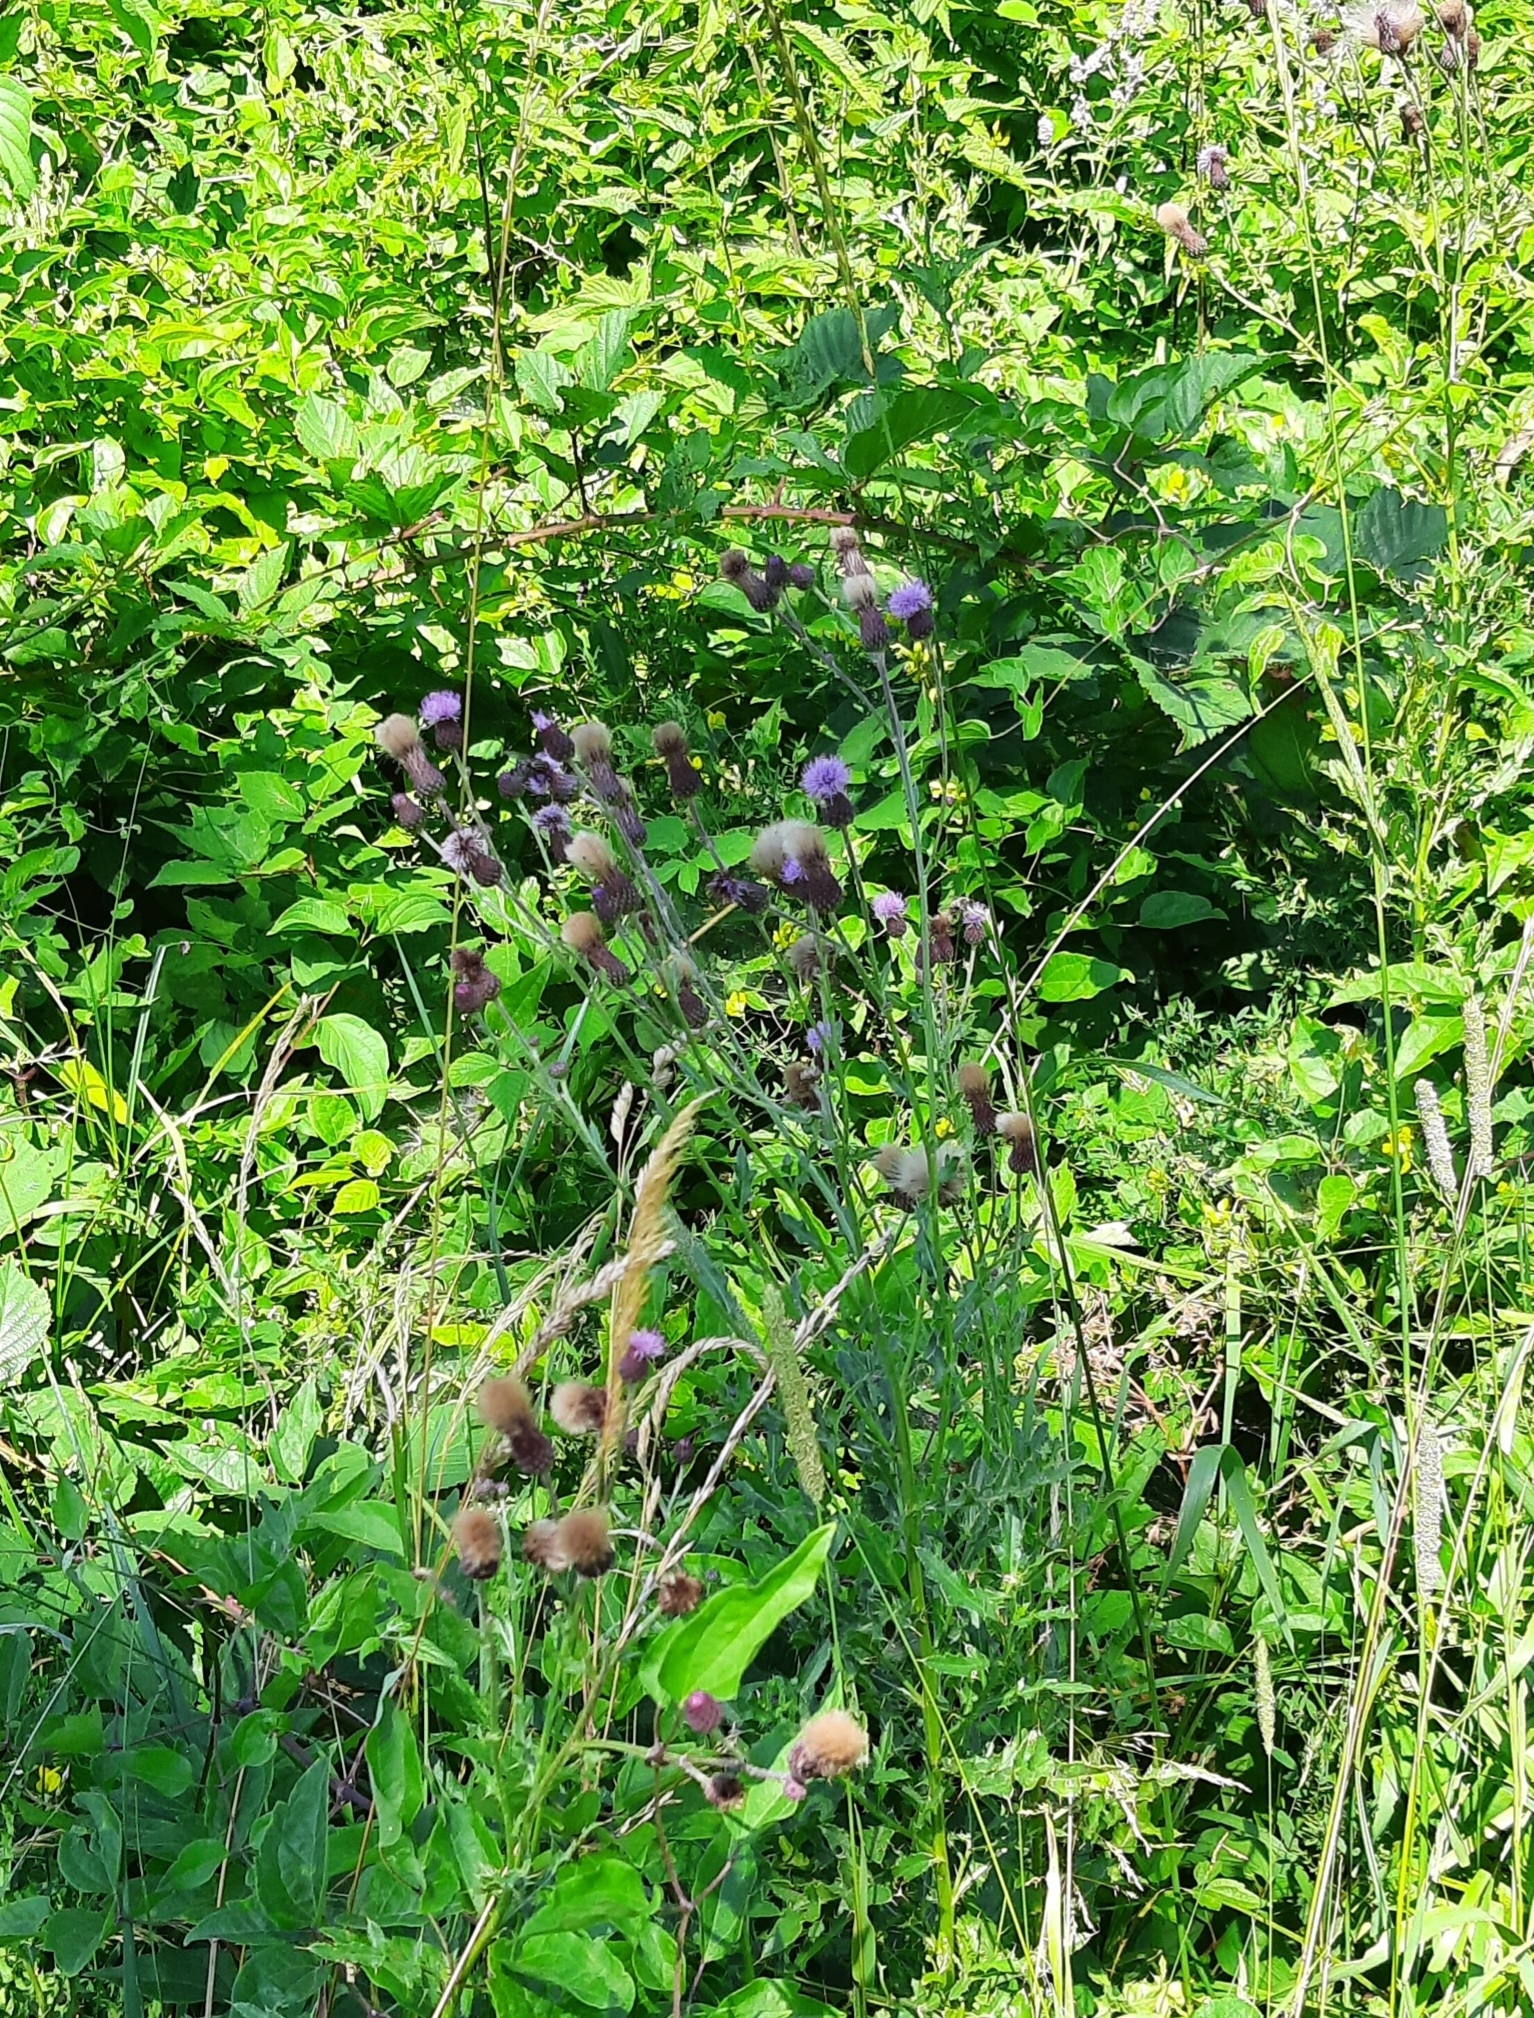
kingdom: Plantae
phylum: Tracheophyta
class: Magnoliopsida
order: Asterales
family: Asteraceae
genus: Cirsium
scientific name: Cirsium arvense
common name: Creeping thistle
